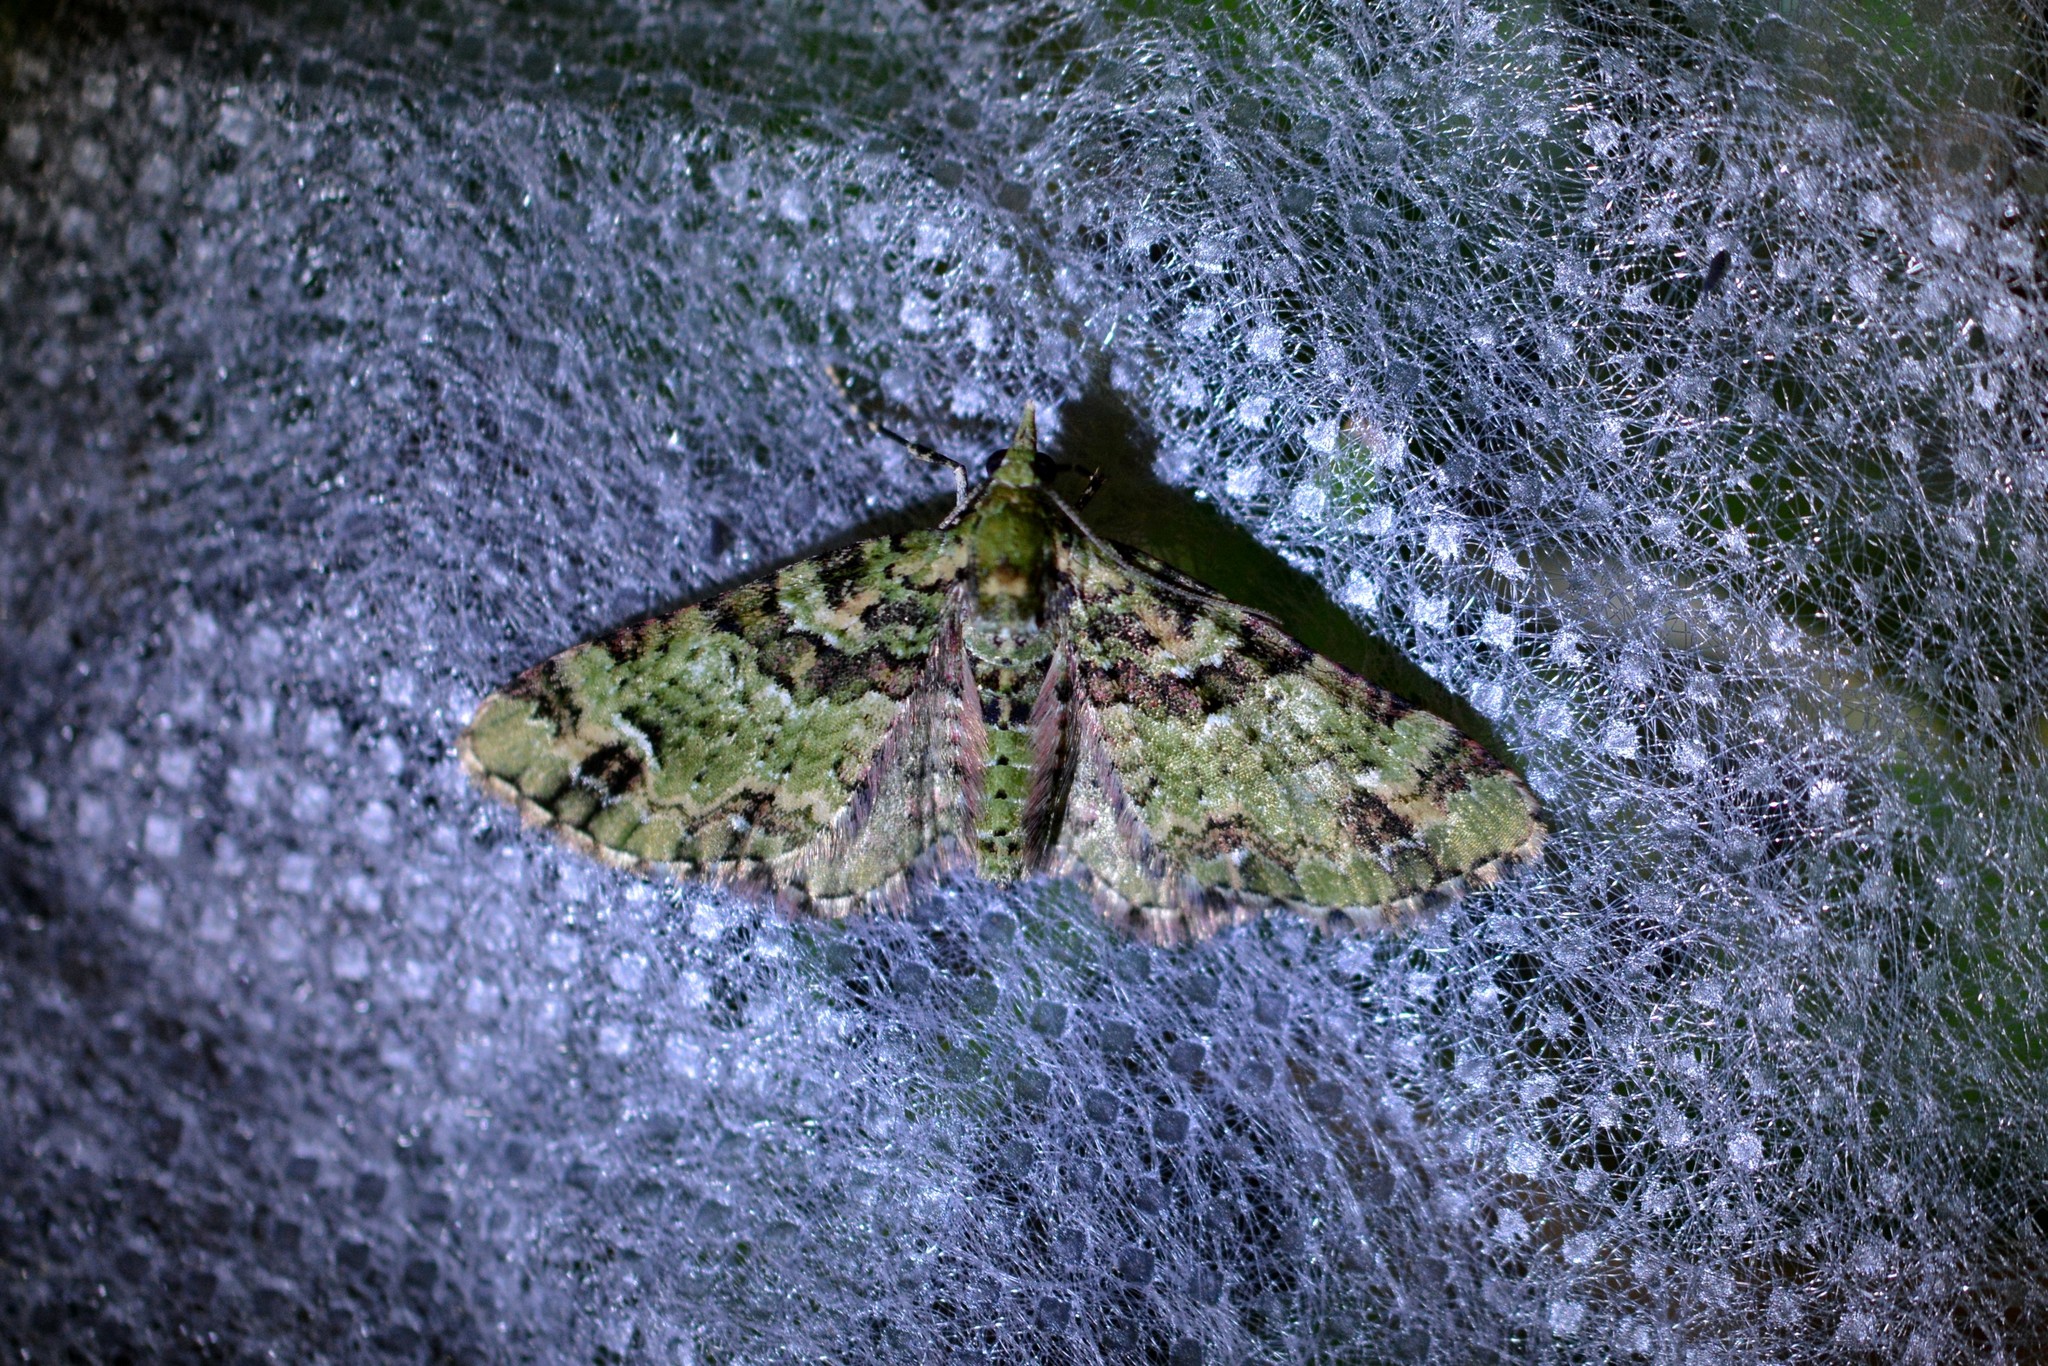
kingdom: Animalia
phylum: Arthropoda
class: Insecta
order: Lepidoptera
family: Geometridae
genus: Pasiphila
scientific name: Pasiphila bilineolata
